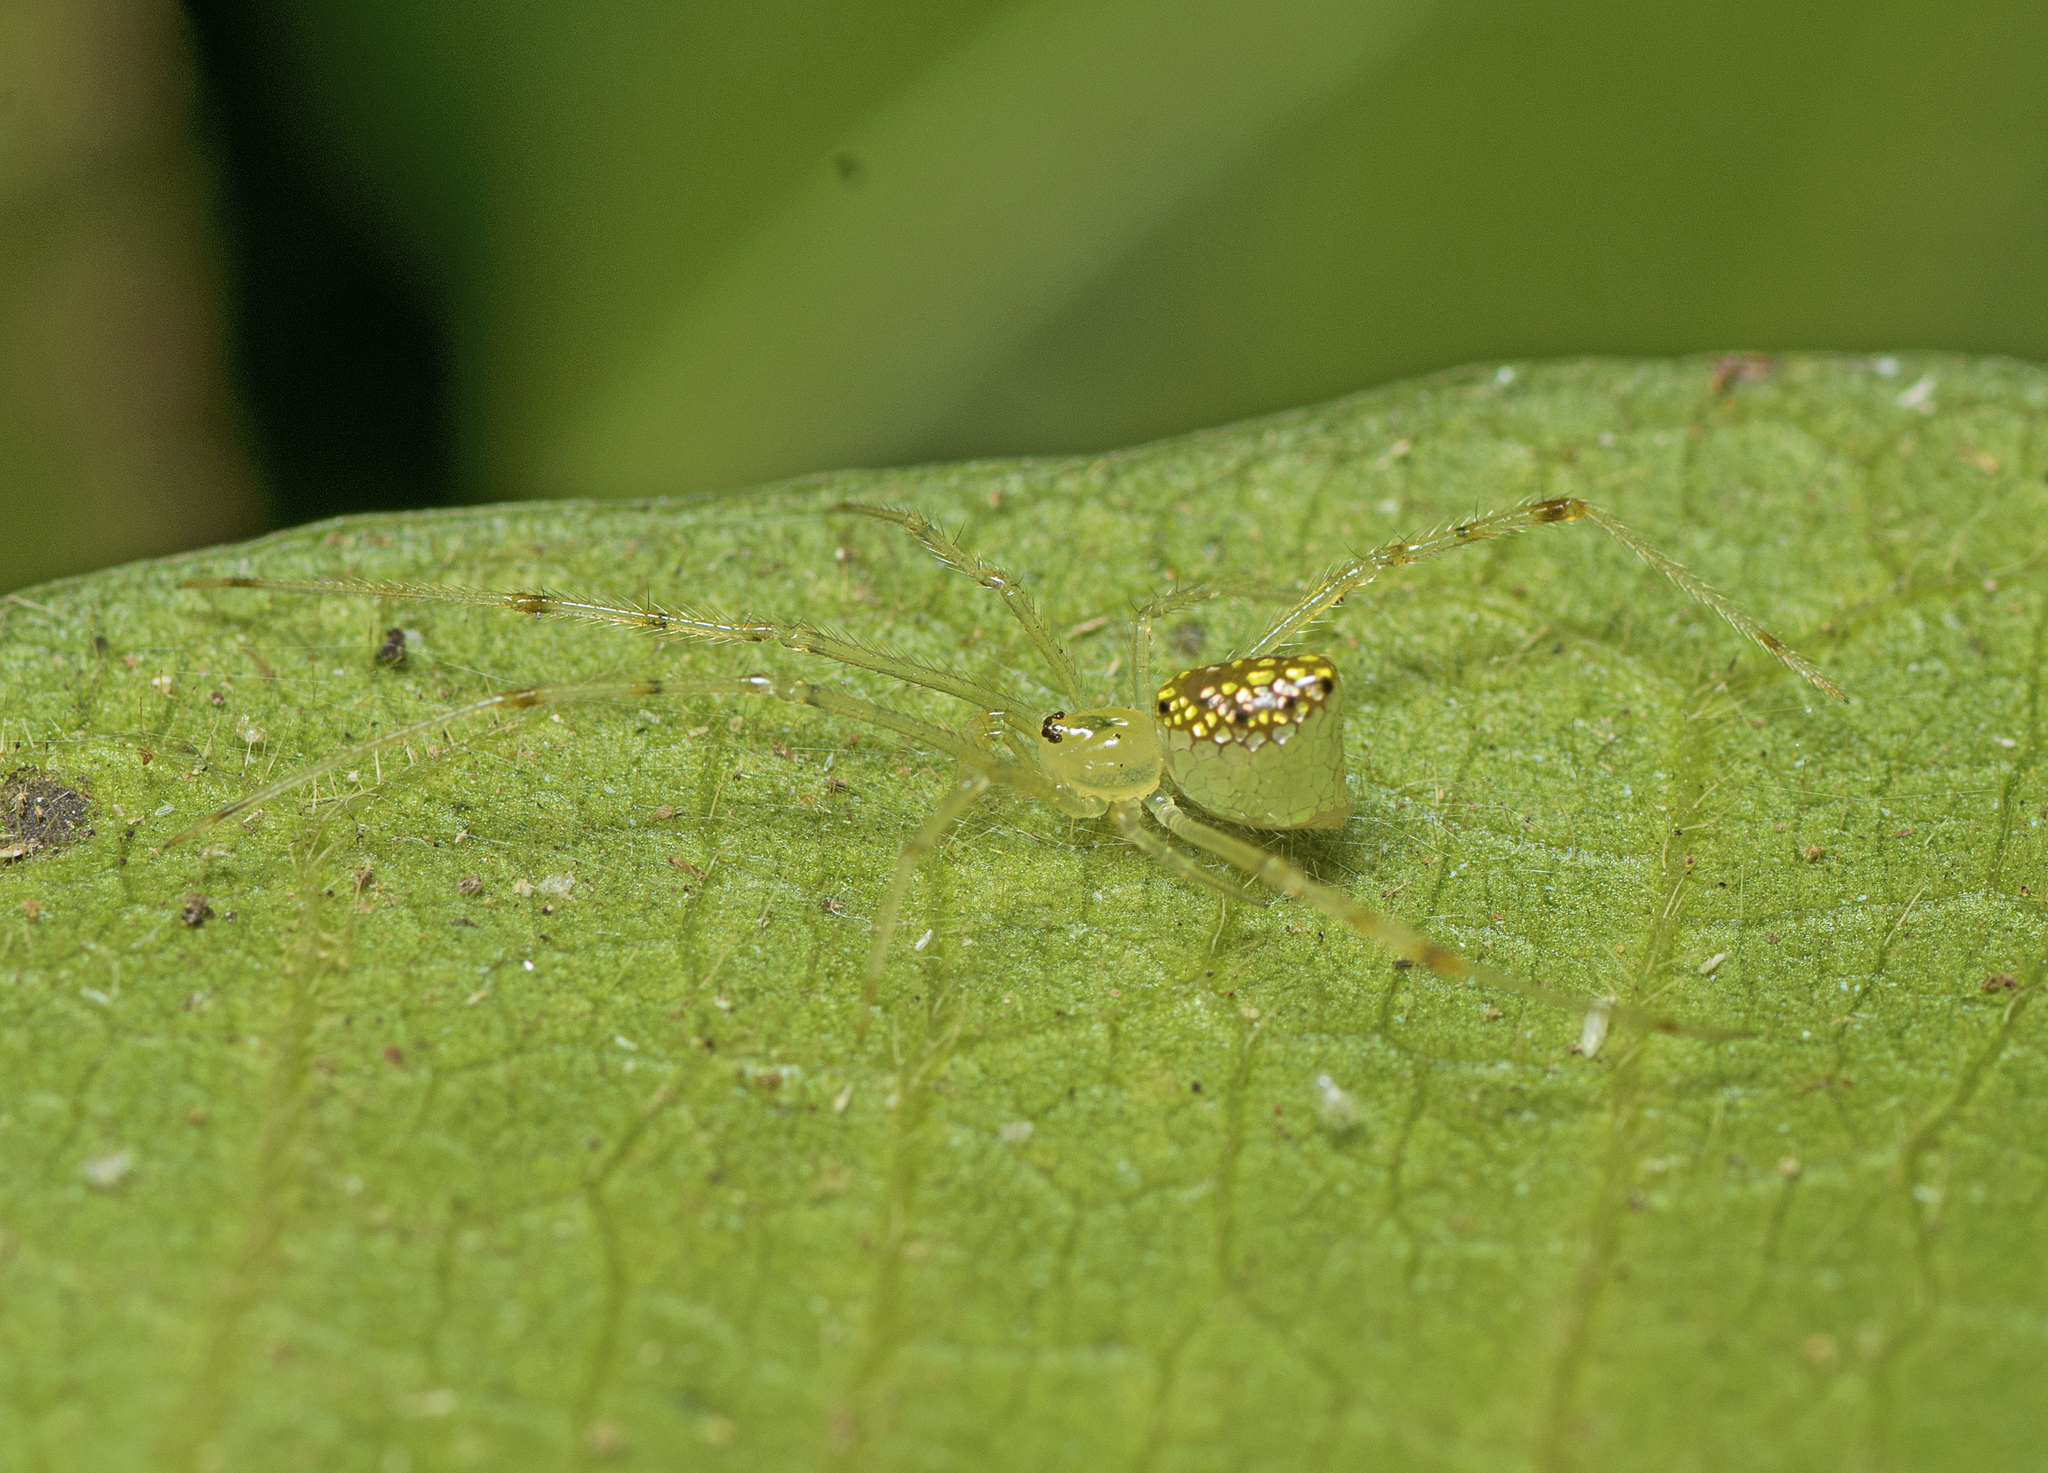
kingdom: Animalia
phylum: Arthropoda
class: Arachnida
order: Araneae
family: Theridiidae
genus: Thwaitesia
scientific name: Thwaitesia nigronodosa
